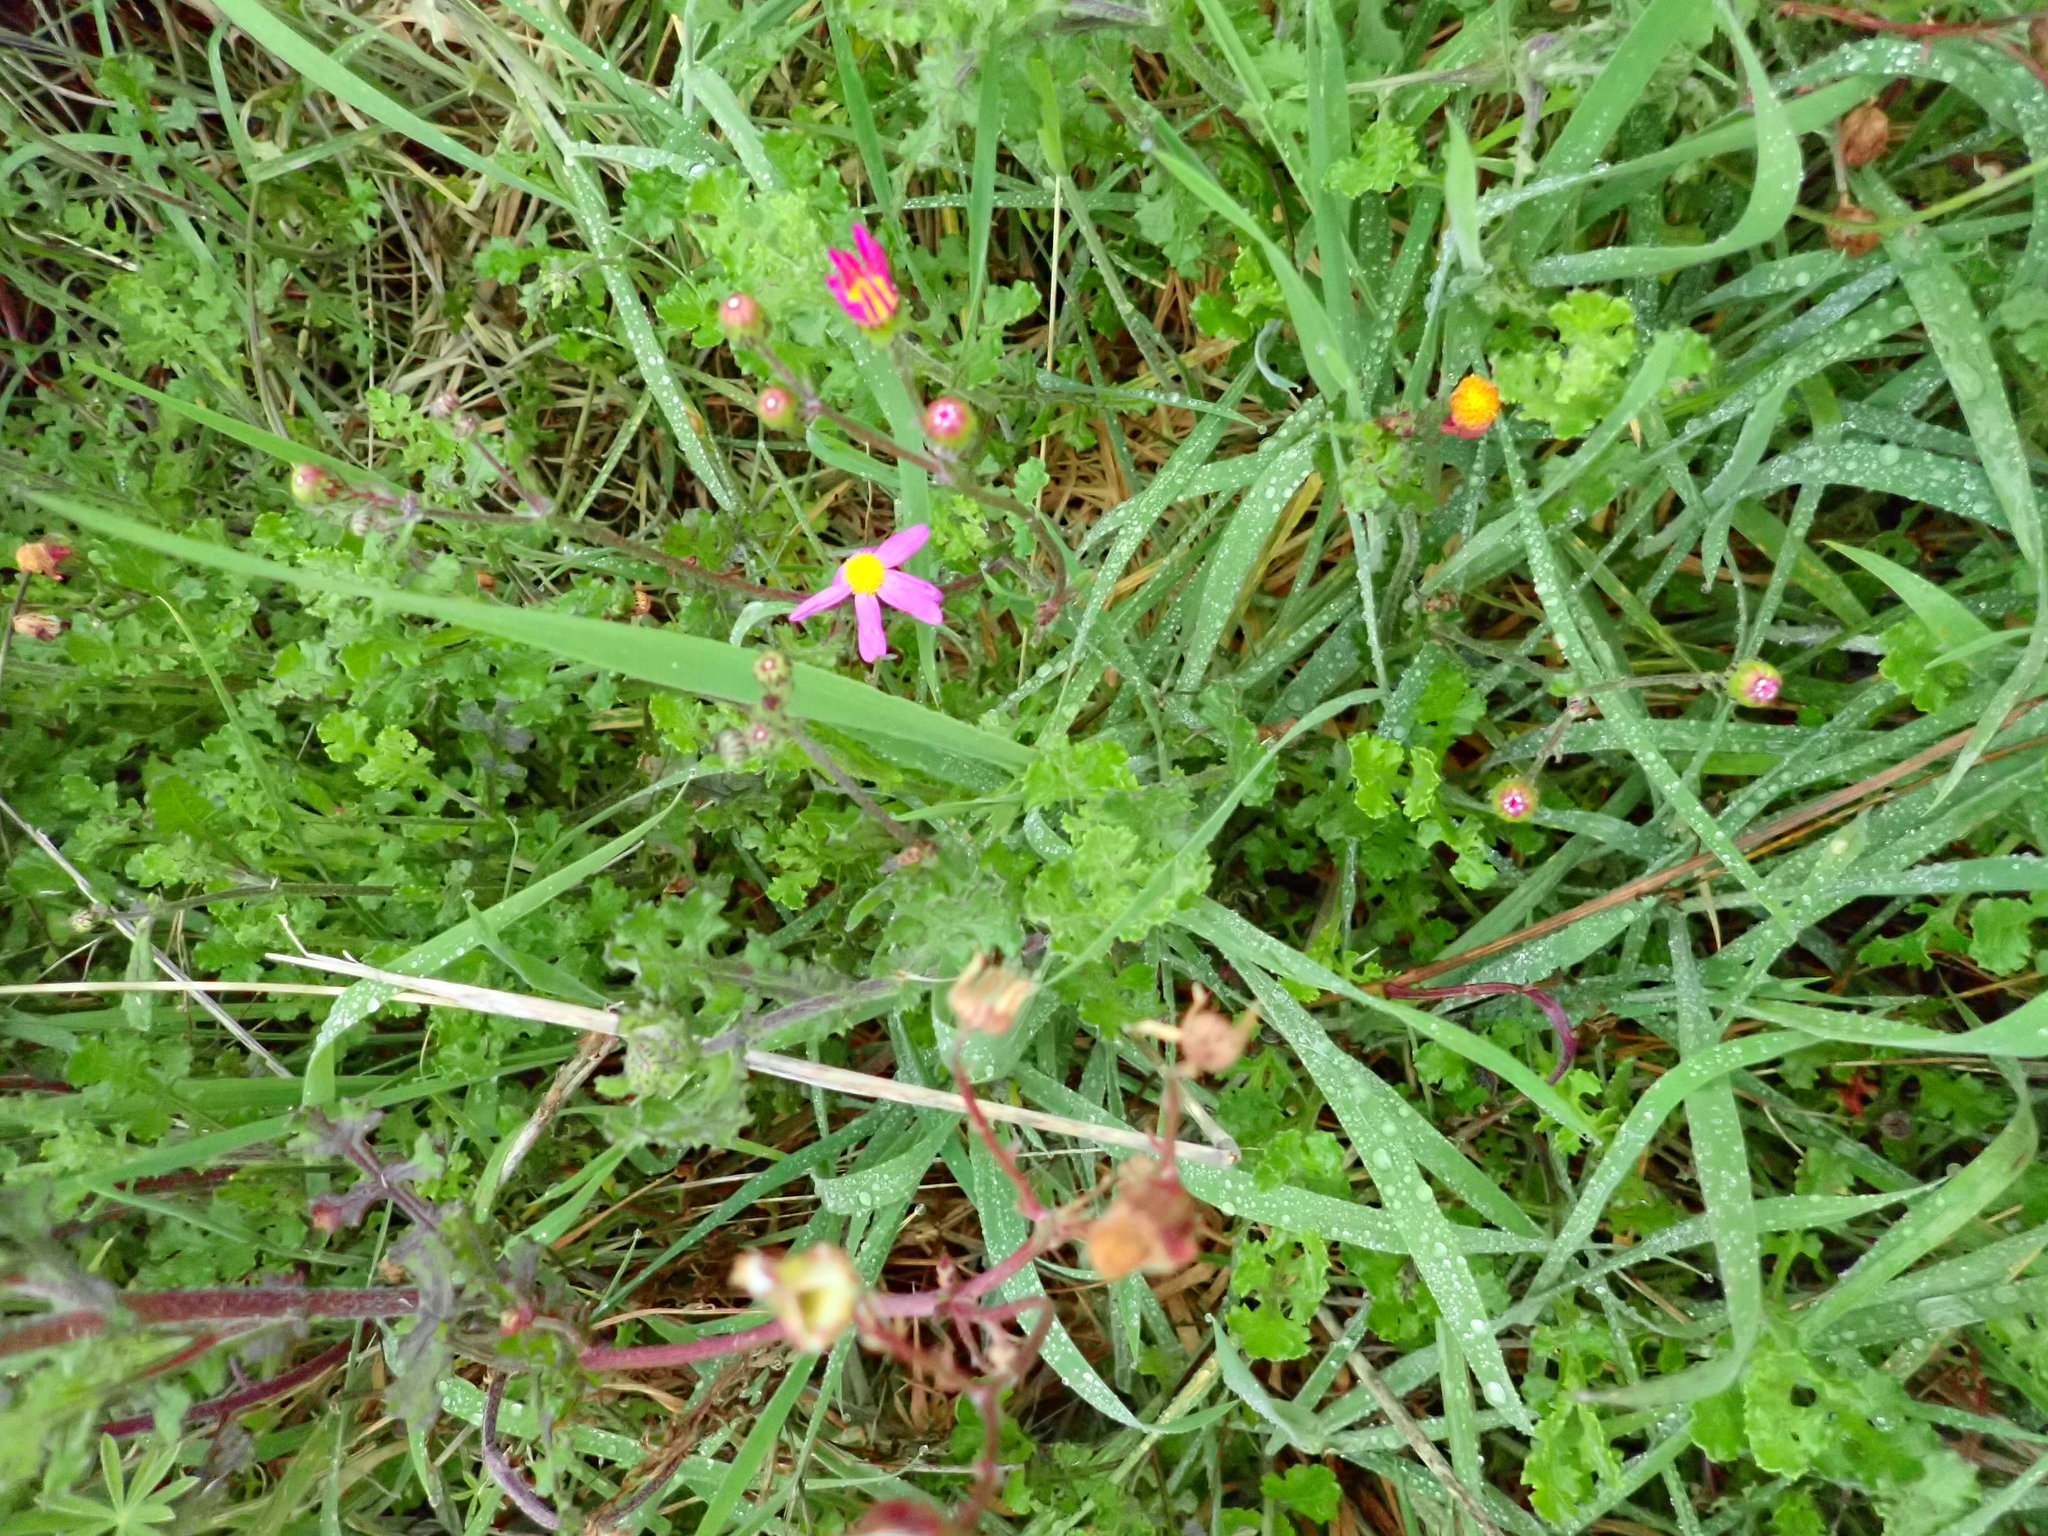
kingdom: Plantae
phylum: Tracheophyta
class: Magnoliopsida
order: Asterales
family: Asteraceae
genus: Senecio
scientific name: Senecio elegans
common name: Purple groundsel
